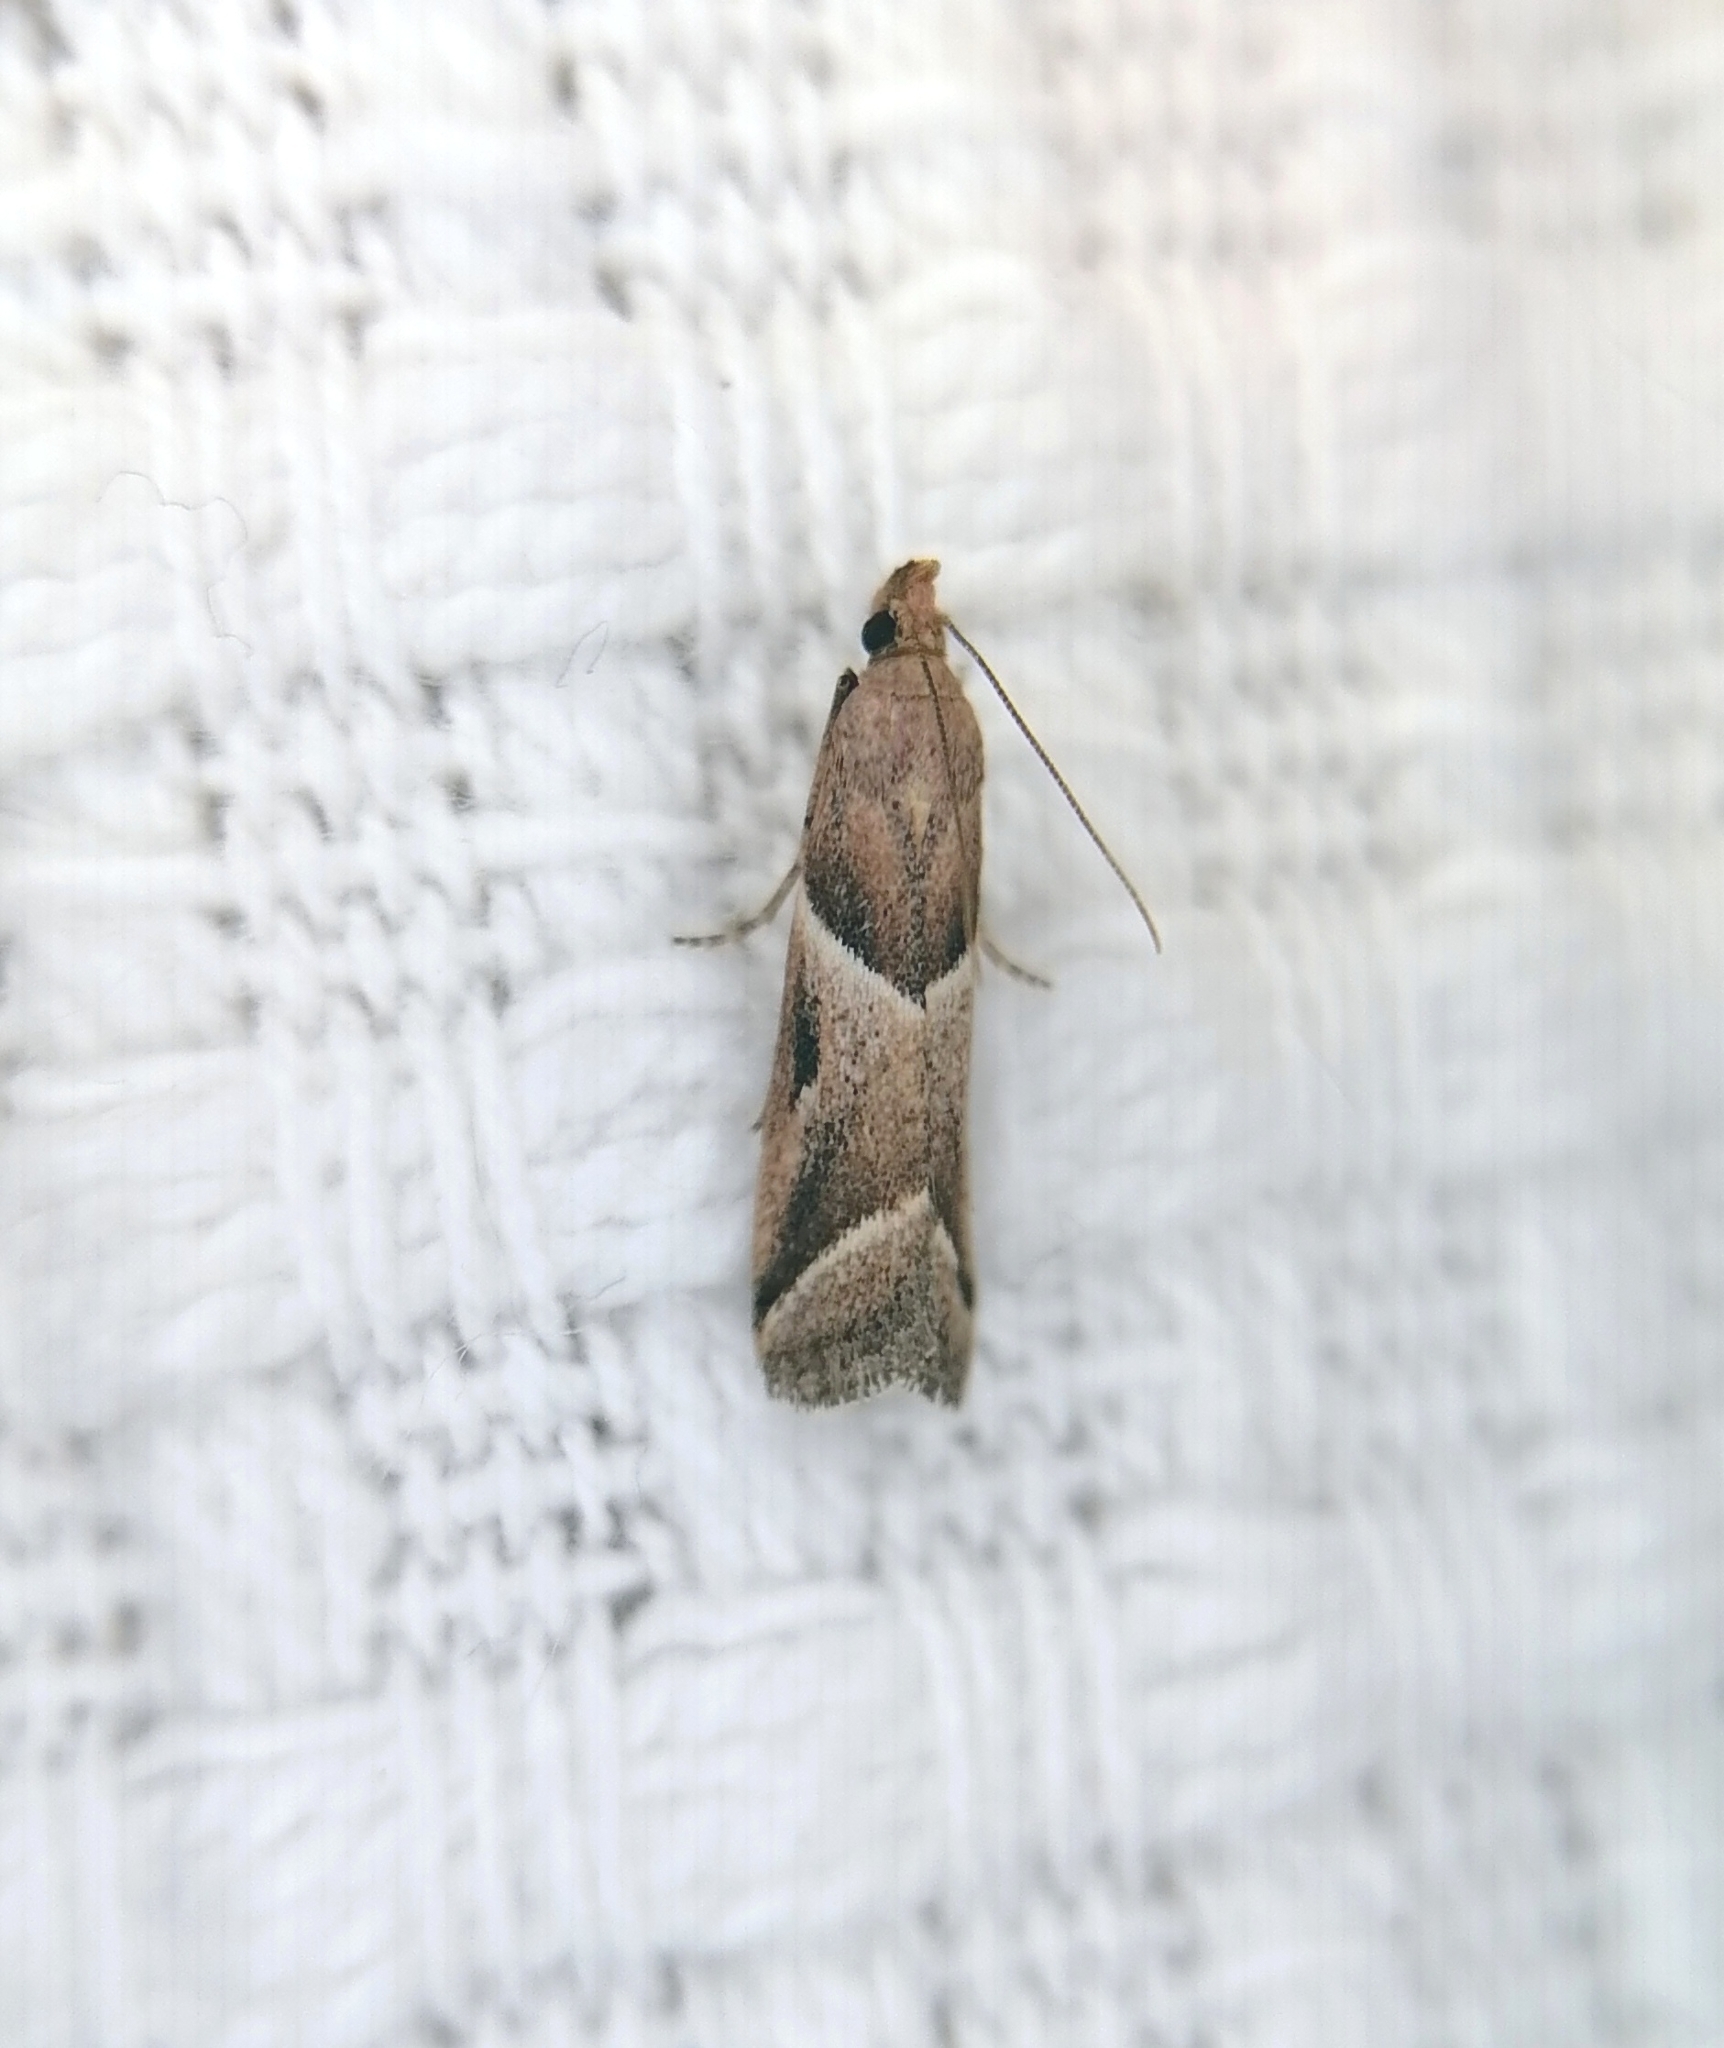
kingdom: Animalia
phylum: Arthropoda
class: Insecta
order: Lepidoptera
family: Pyralidae
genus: Nyctegretis
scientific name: Nyctegretis lineana
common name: Agate knot-horn
